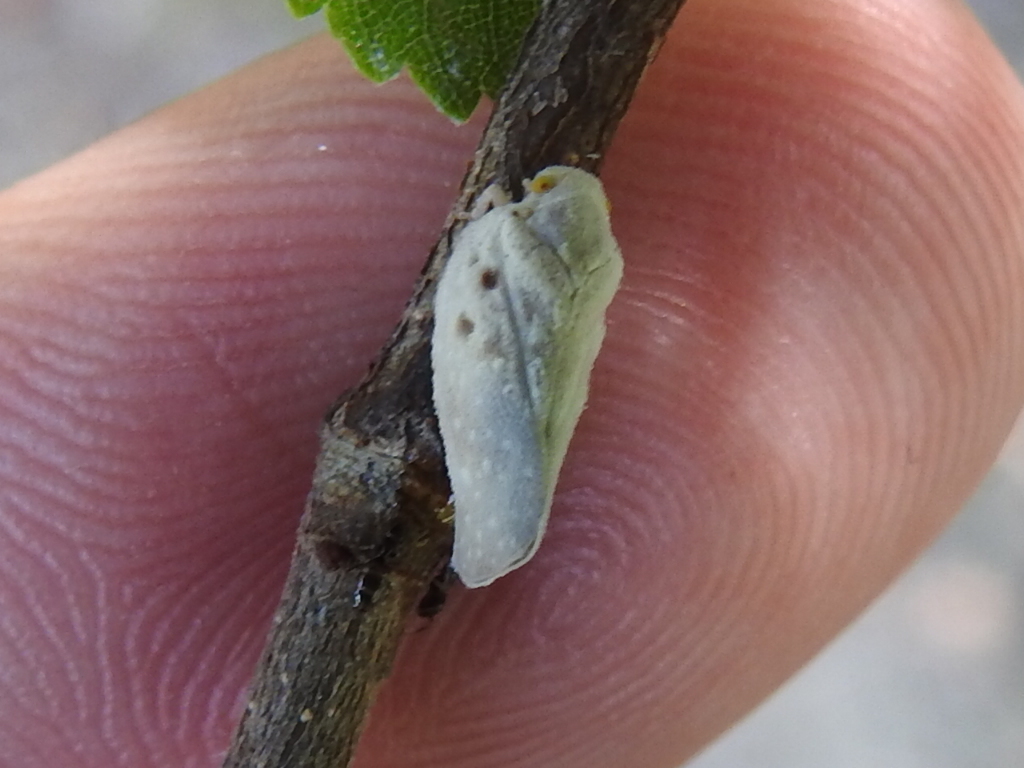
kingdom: Animalia
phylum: Arthropoda
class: Insecta
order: Hemiptera
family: Flatidae
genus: Metcalfa
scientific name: Metcalfa pruinosa
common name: Citrus flatid planthopper
